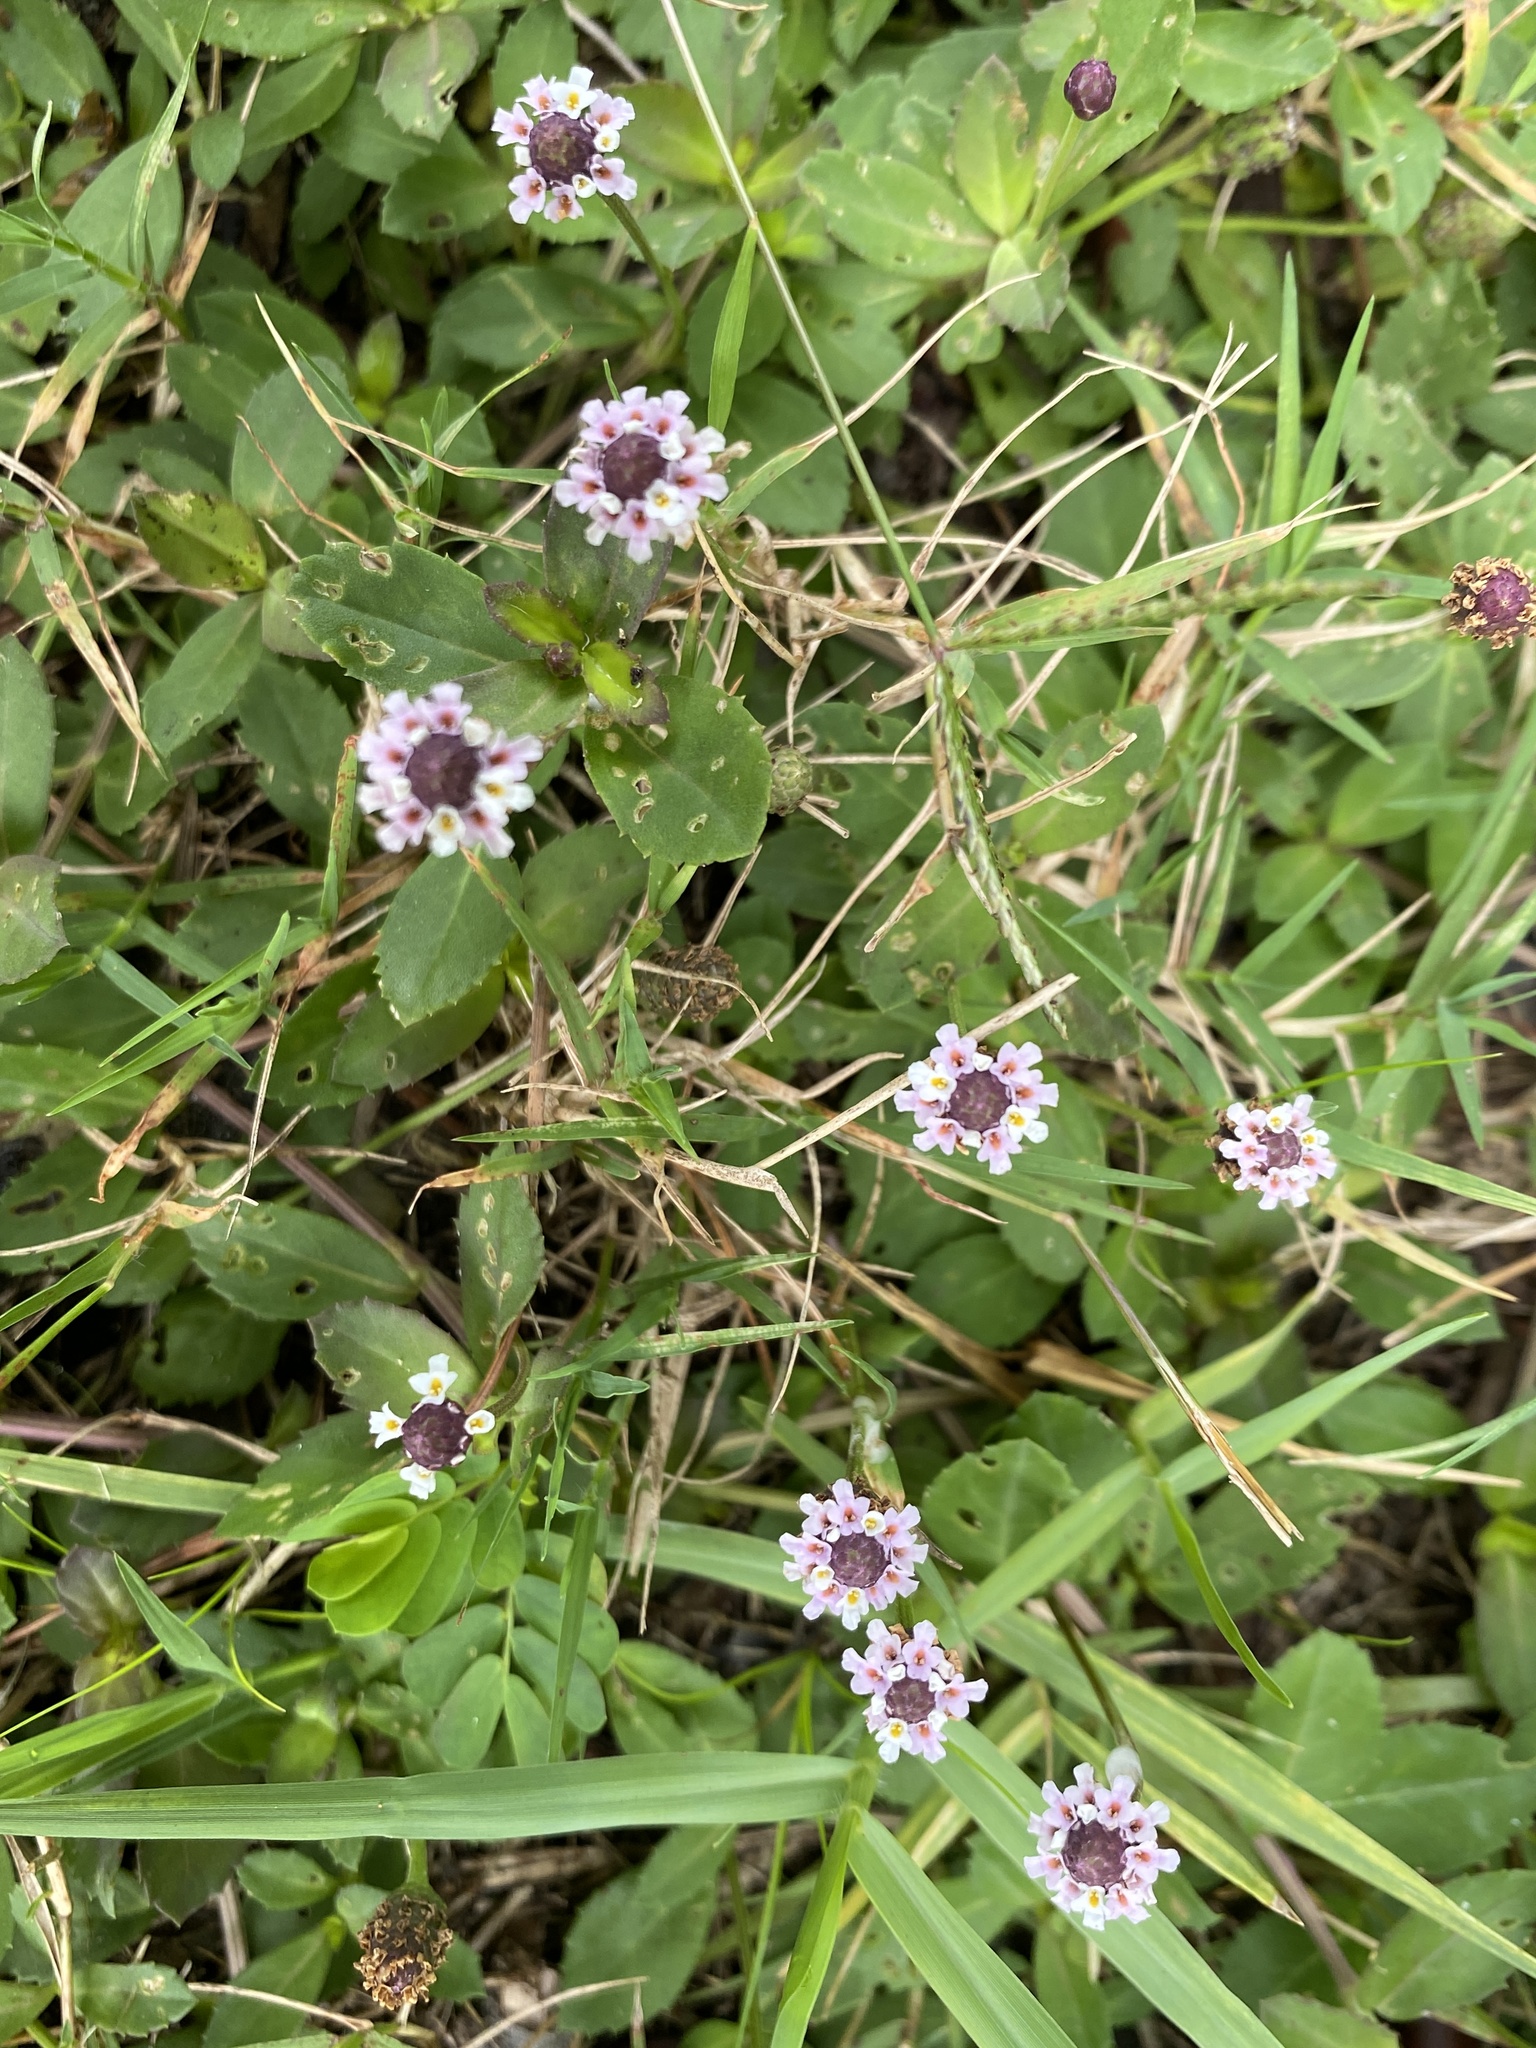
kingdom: Plantae
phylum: Tracheophyta
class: Magnoliopsida
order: Lamiales
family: Verbenaceae
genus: Phyla
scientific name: Phyla nodiflora
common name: Frogfruit
